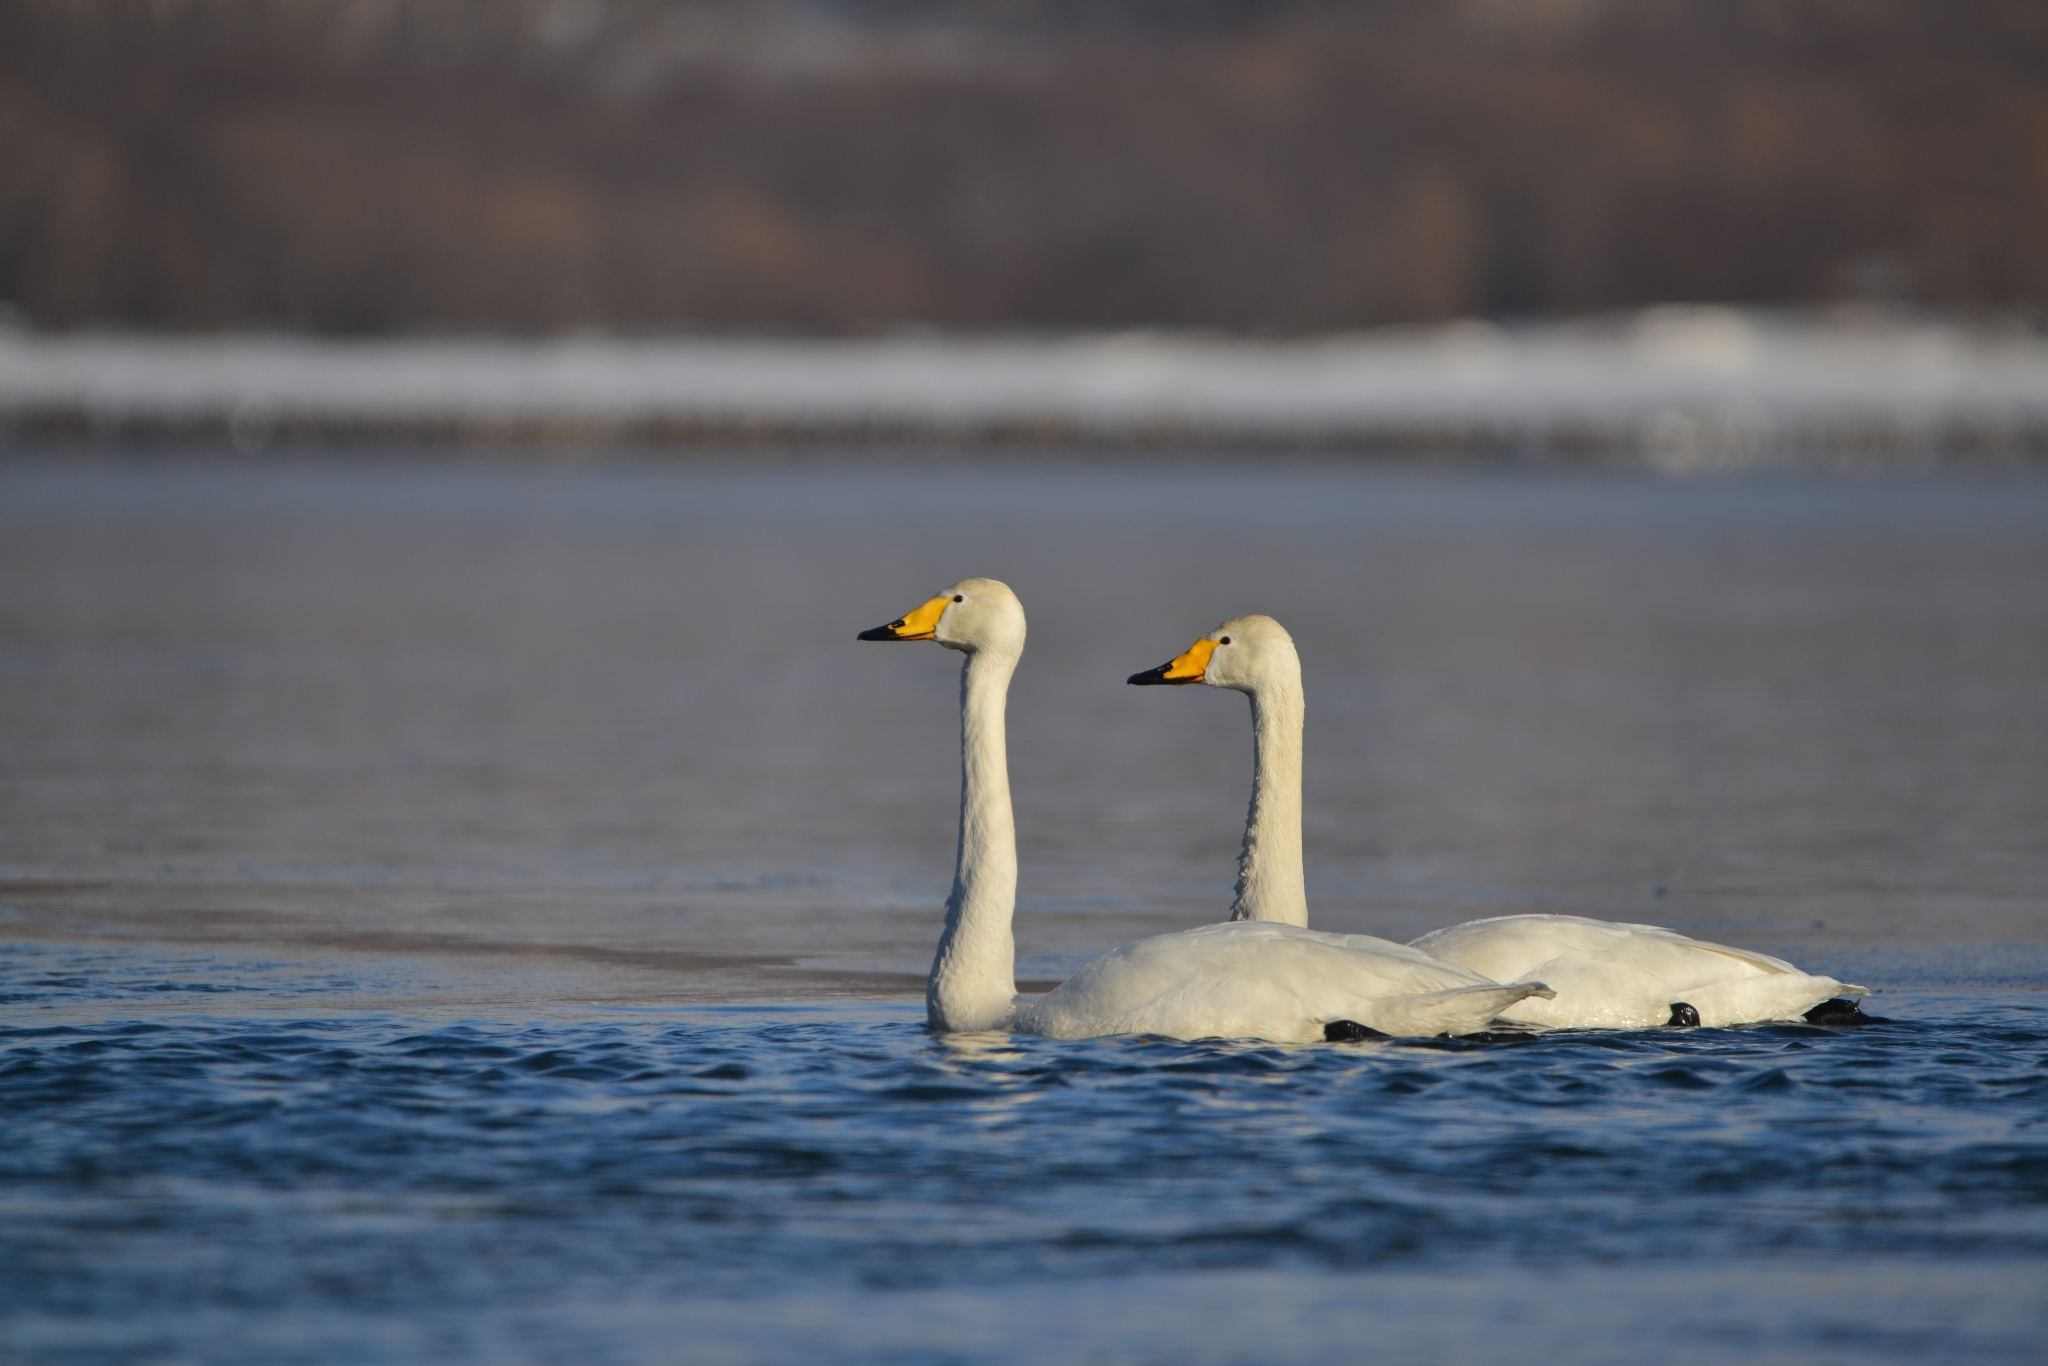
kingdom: Animalia
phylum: Chordata
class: Aves
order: Anseriformes
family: Anatidae
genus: Cygnus
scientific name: Cygnus cygnus
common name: Whooper swan
